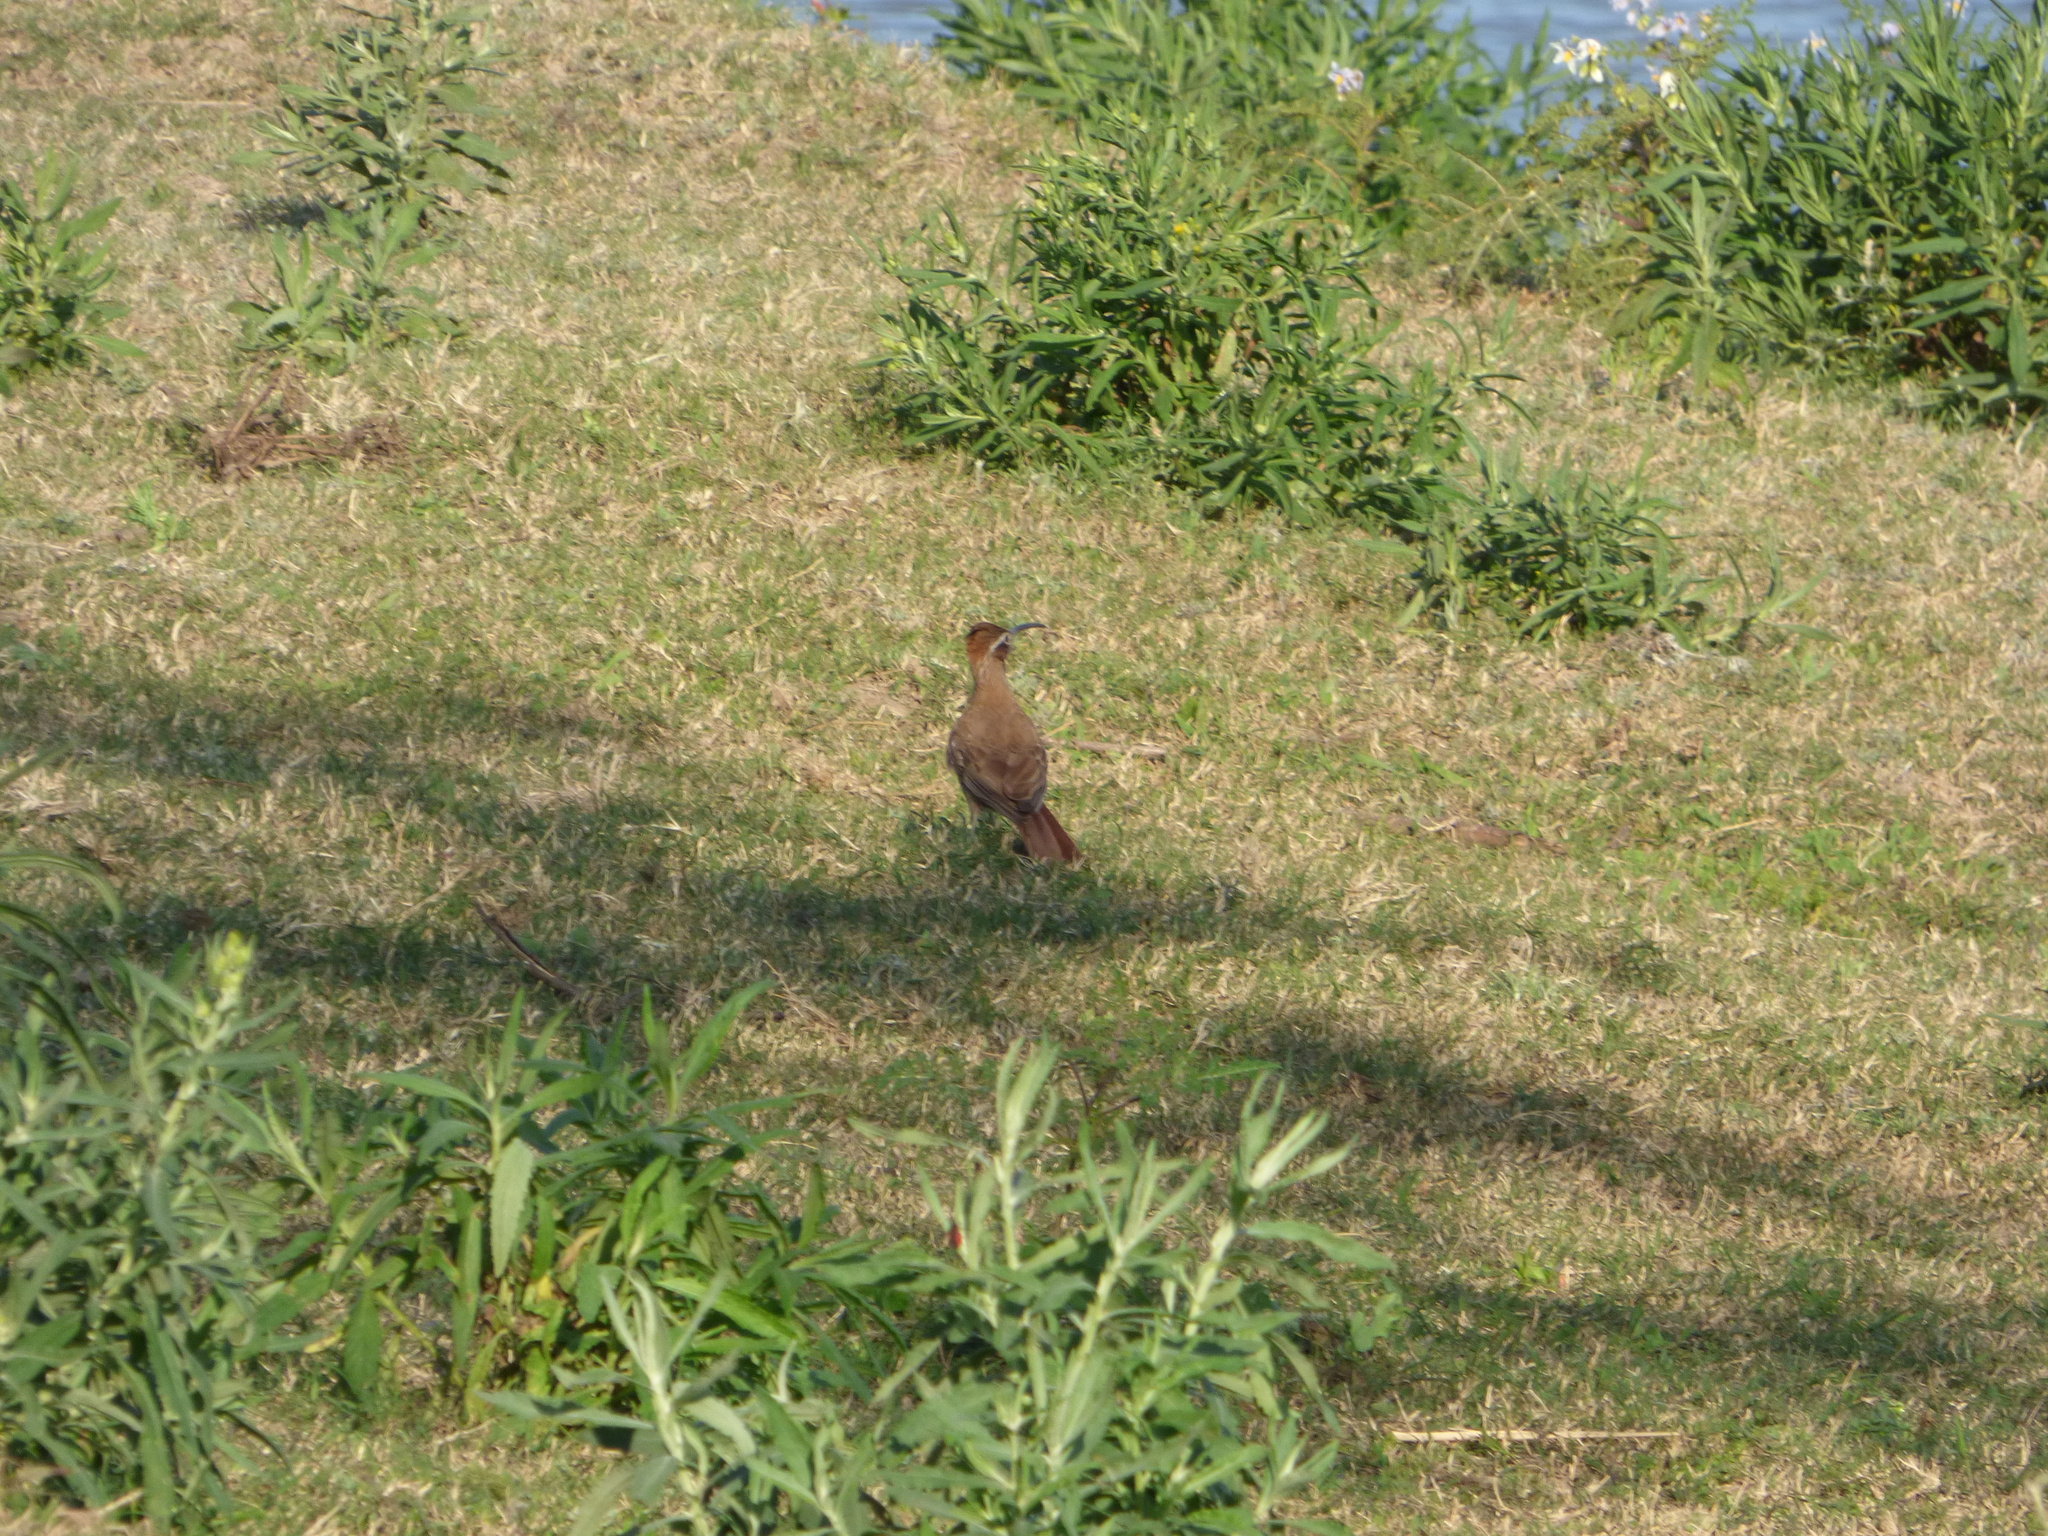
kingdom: Animalia
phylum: Chordata
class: Aves
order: Passeriformes
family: Furnariidae
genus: Drymornis
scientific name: Drymornis bridgesii
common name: Scimitar-billed woodcreeper
